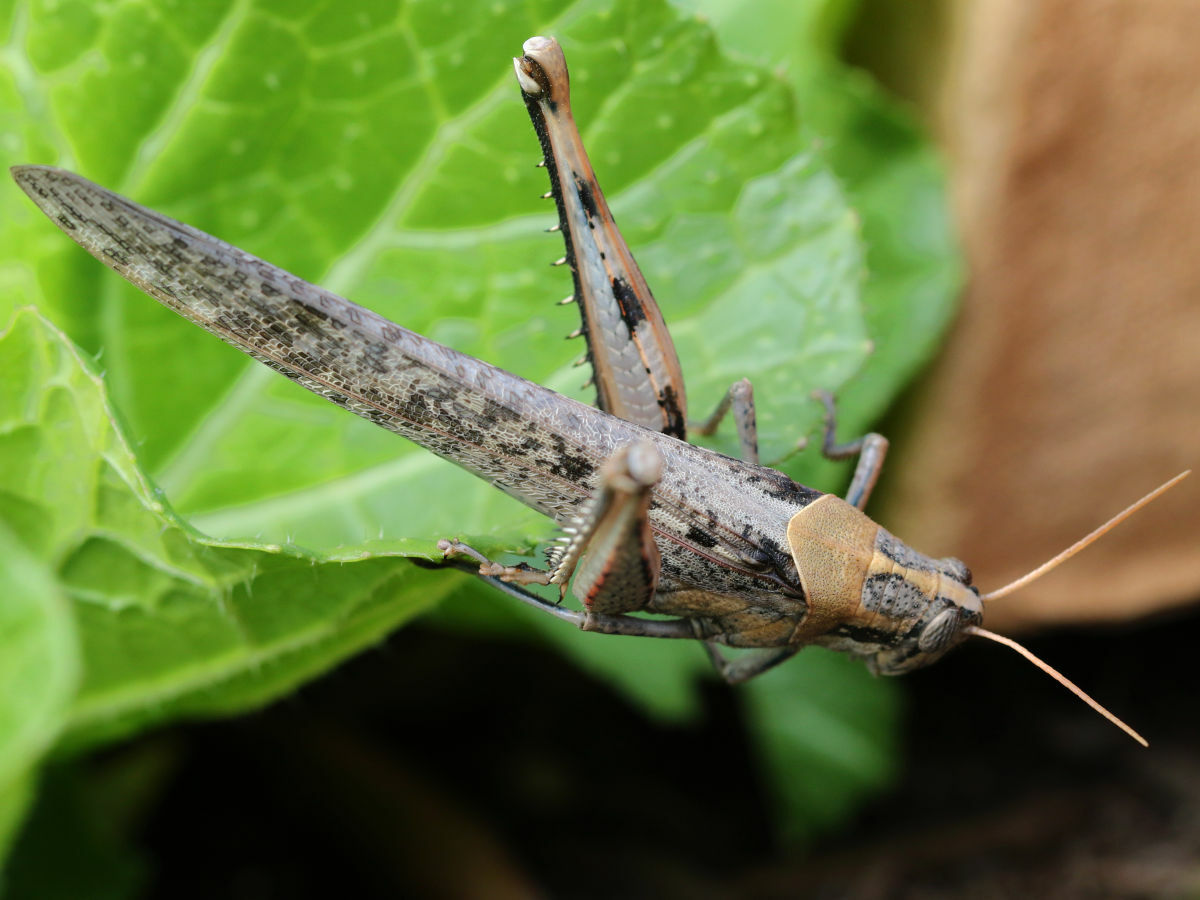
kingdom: Animalia
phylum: Arthropoda
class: Insecta
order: Orthoptera
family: Acrididae
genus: Schistocerca
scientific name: Schistocerca nitens
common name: Vagrant grasshopper
